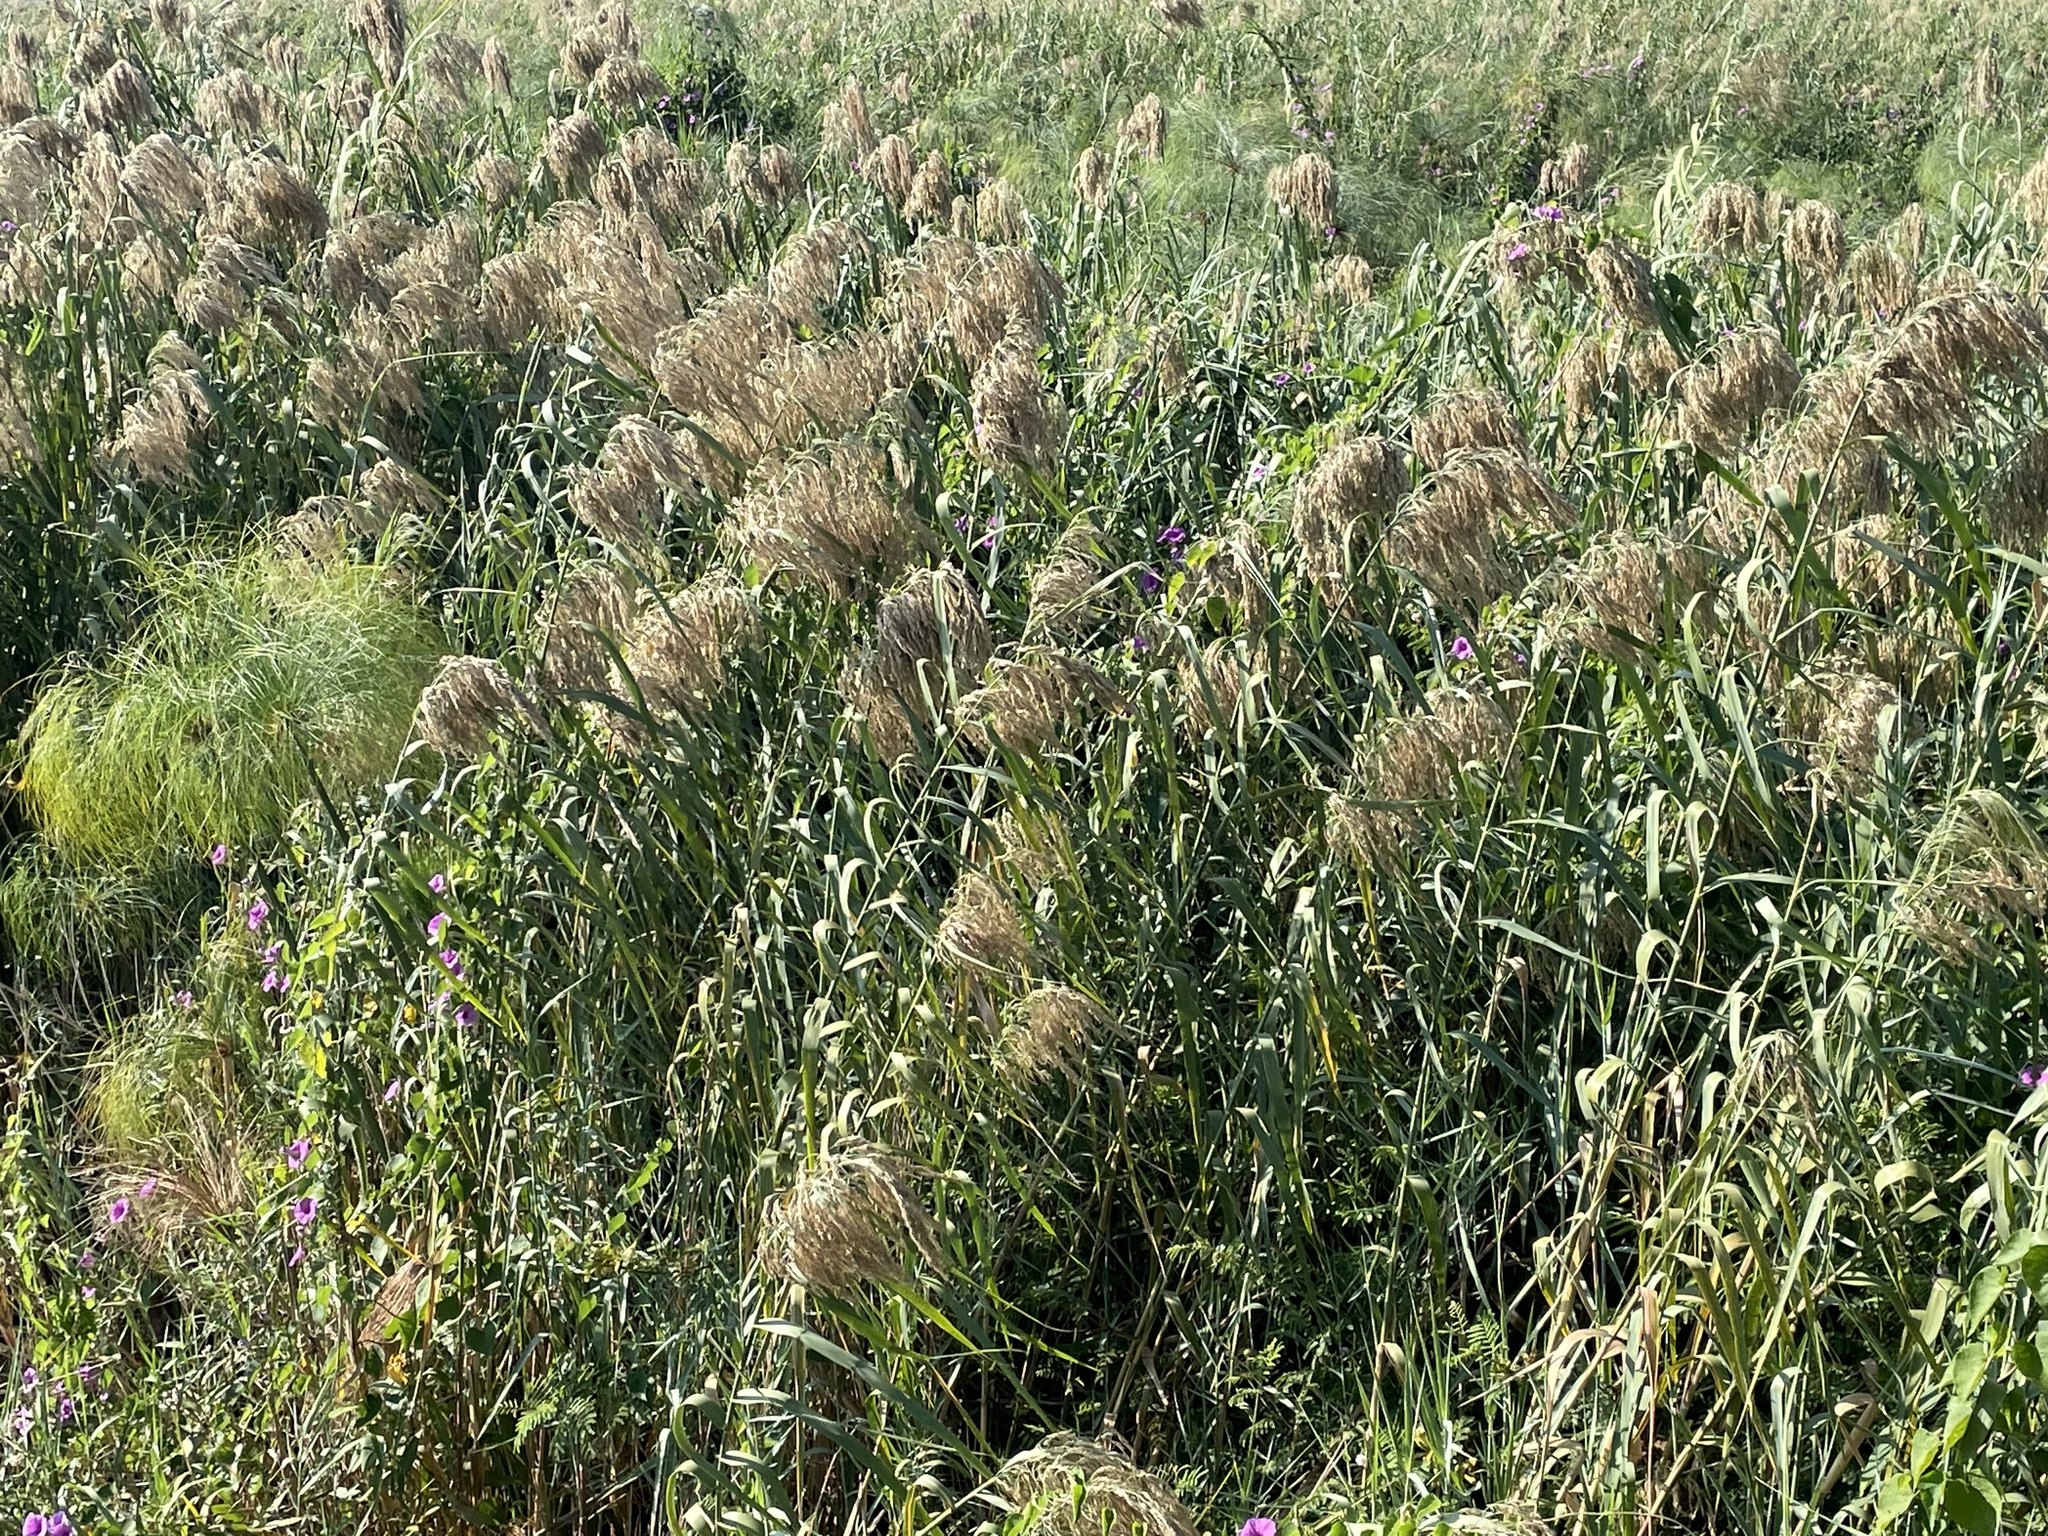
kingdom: Plantae
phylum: Tracheophyta
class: Liliopsida
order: Poales
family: Poaceae
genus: Phragmites
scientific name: Phragmites australis
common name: Common reed
